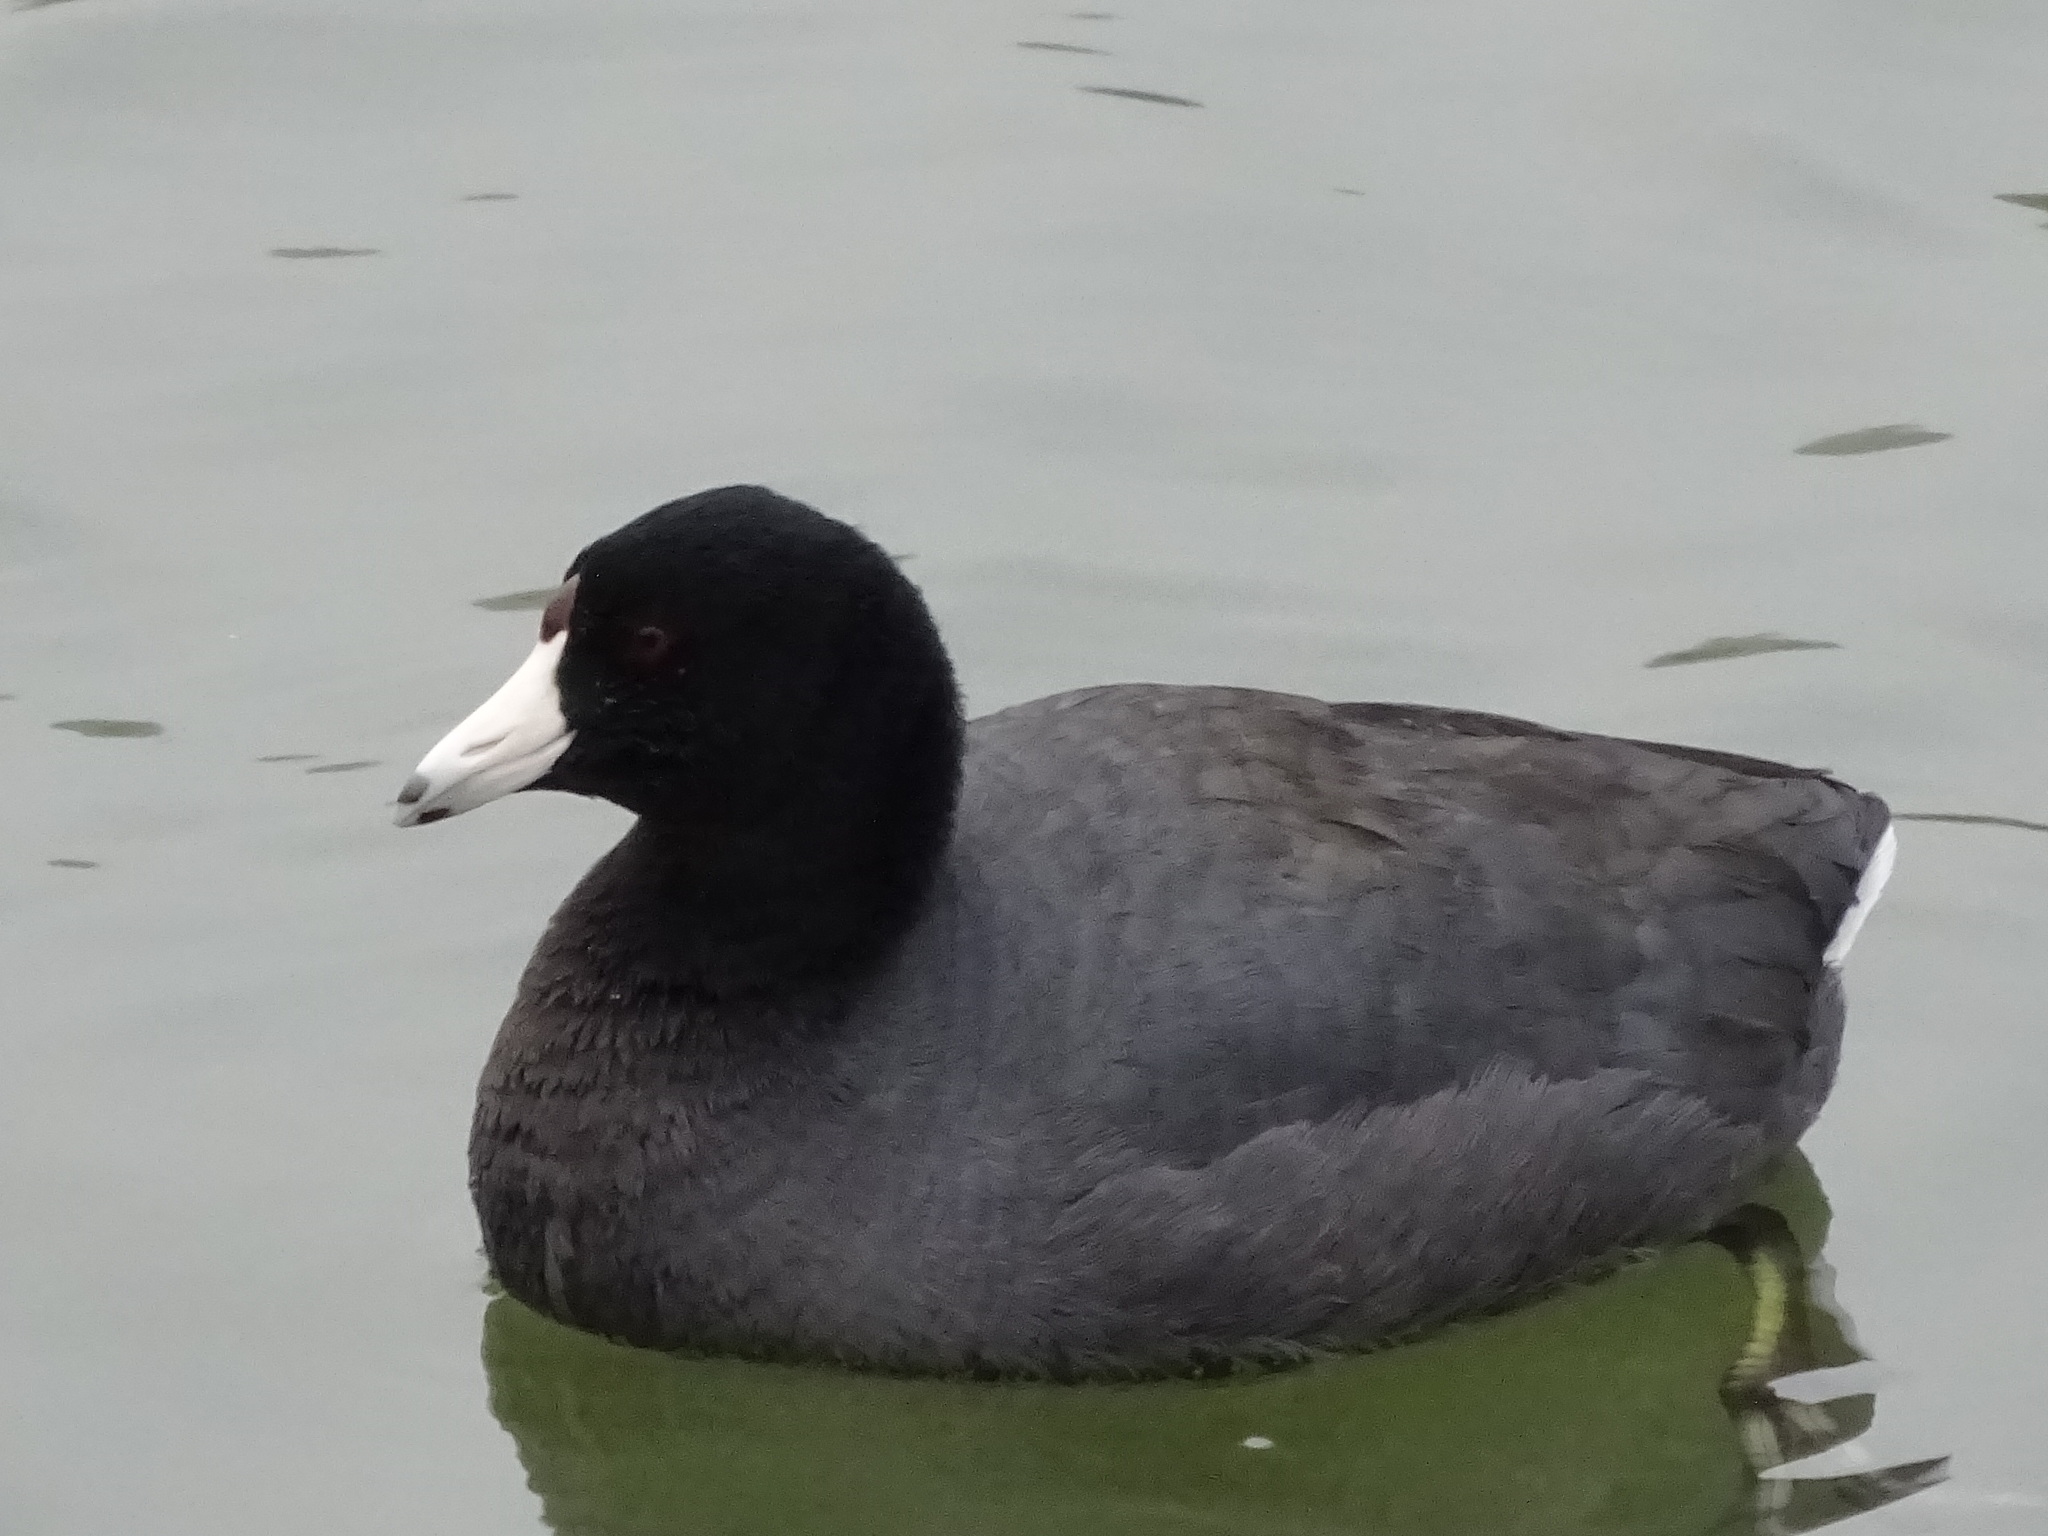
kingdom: Animalia
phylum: Chordata
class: Aves
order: Gruiformes
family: Rallidae
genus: Fulica
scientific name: Fulica americana
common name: American coot
